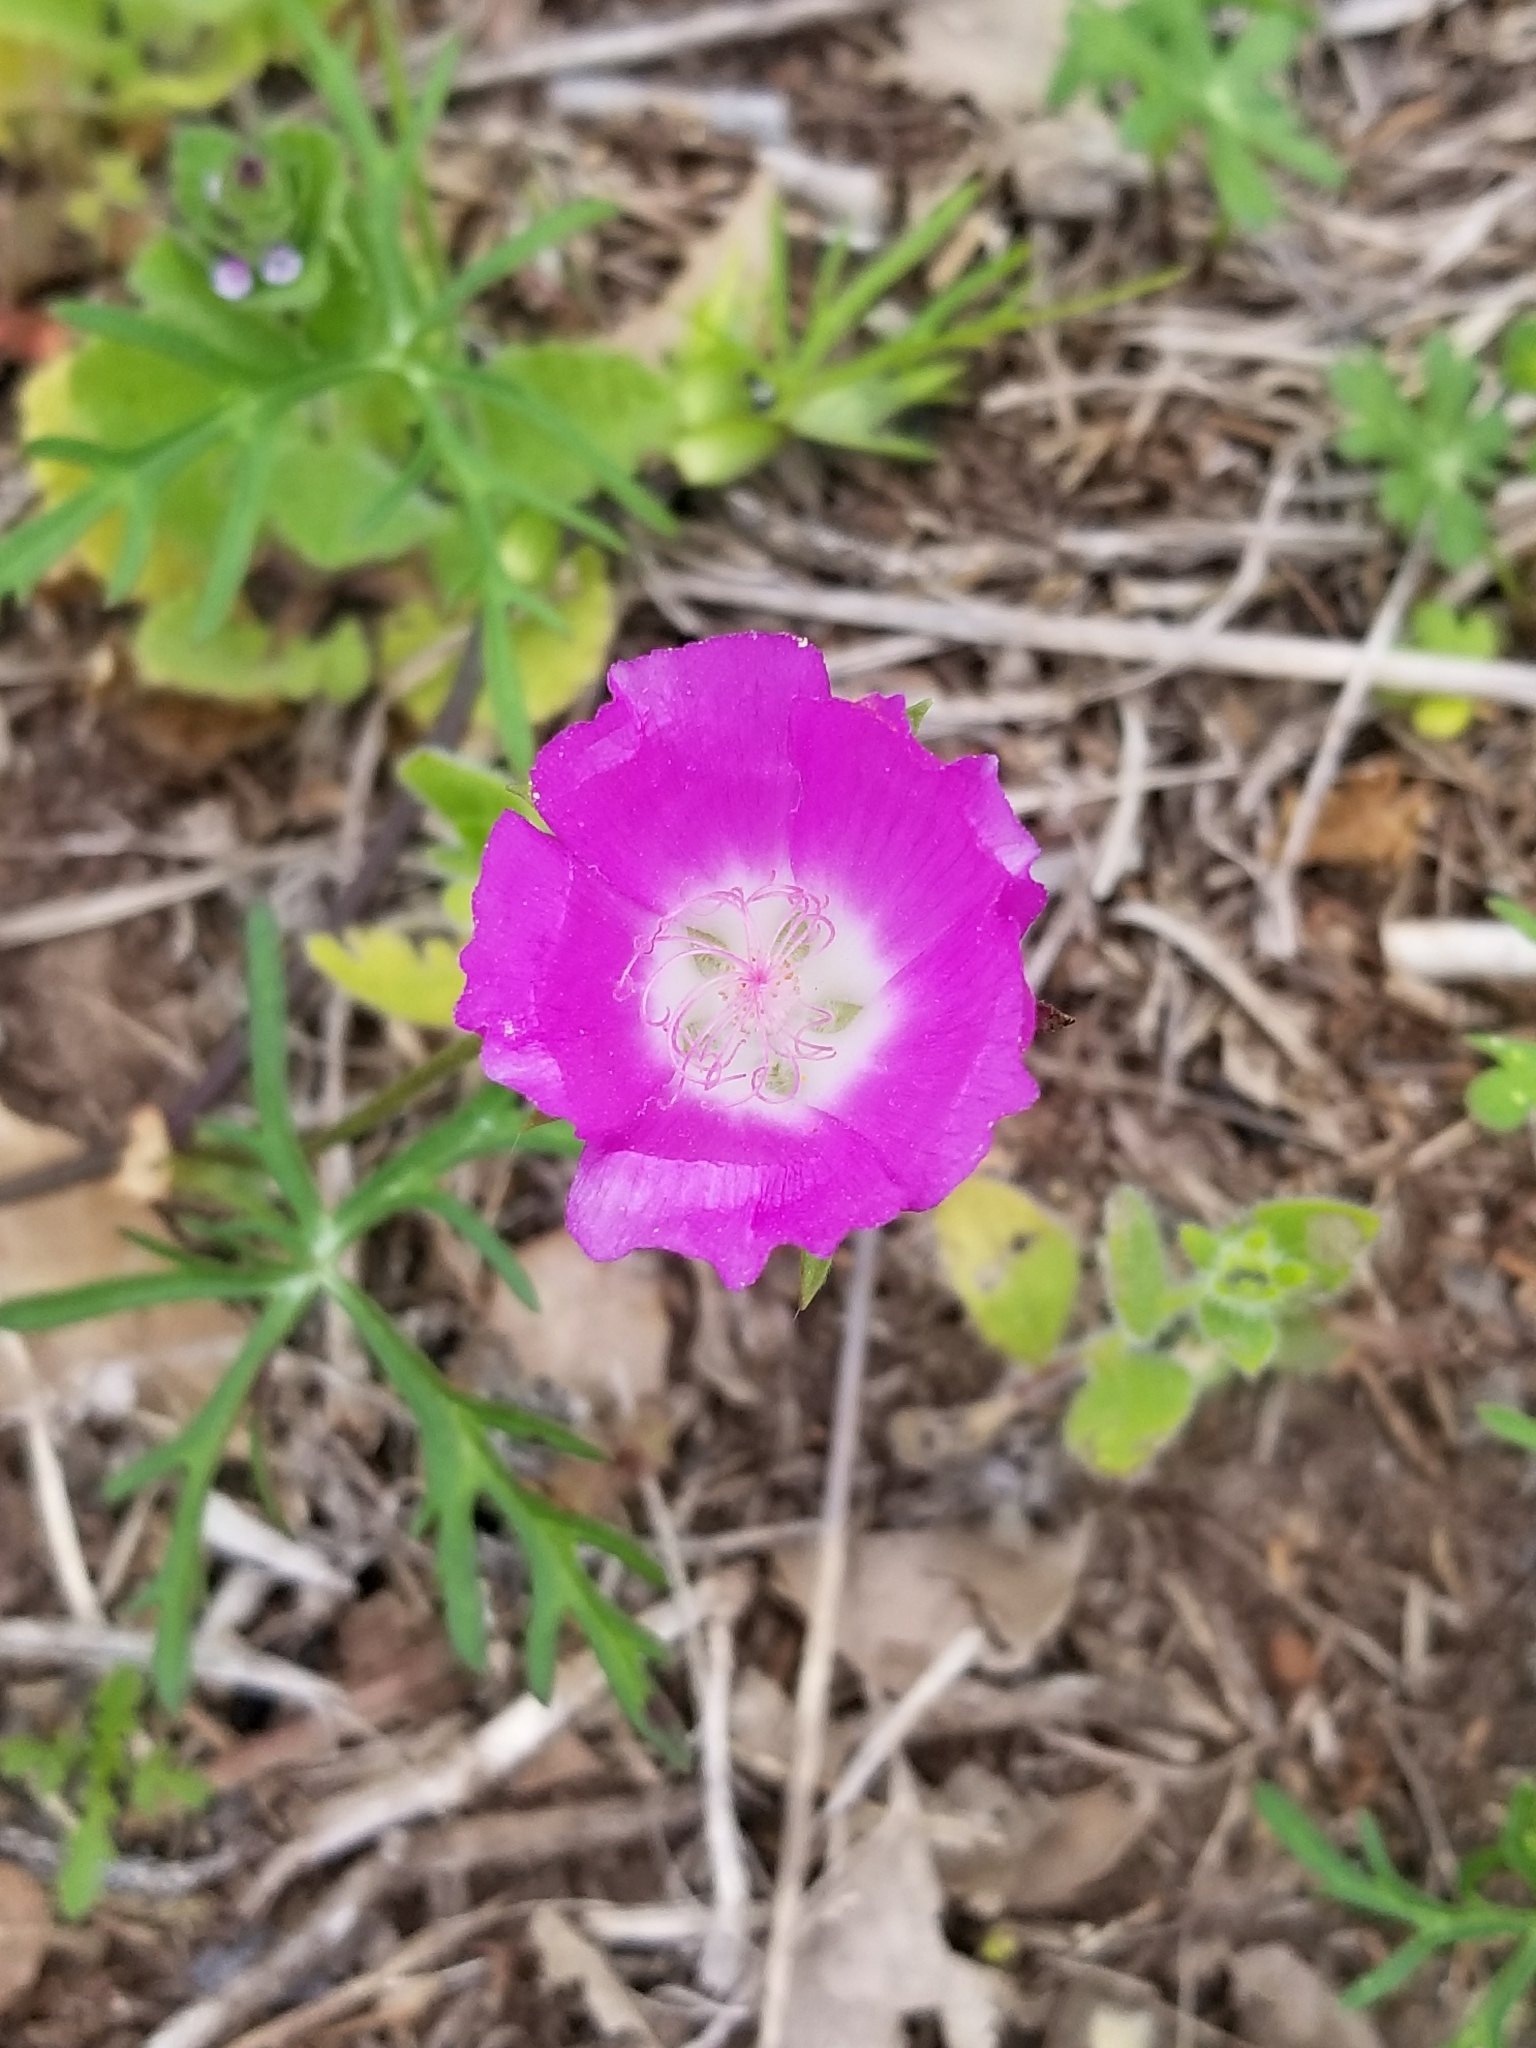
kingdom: Plantae
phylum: Tracheophyta
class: Magnoliopsida
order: Malvales
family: Malvaceae
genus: Callirhoe
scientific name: Callirhoe involucrata
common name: Purple poppy-mallow
